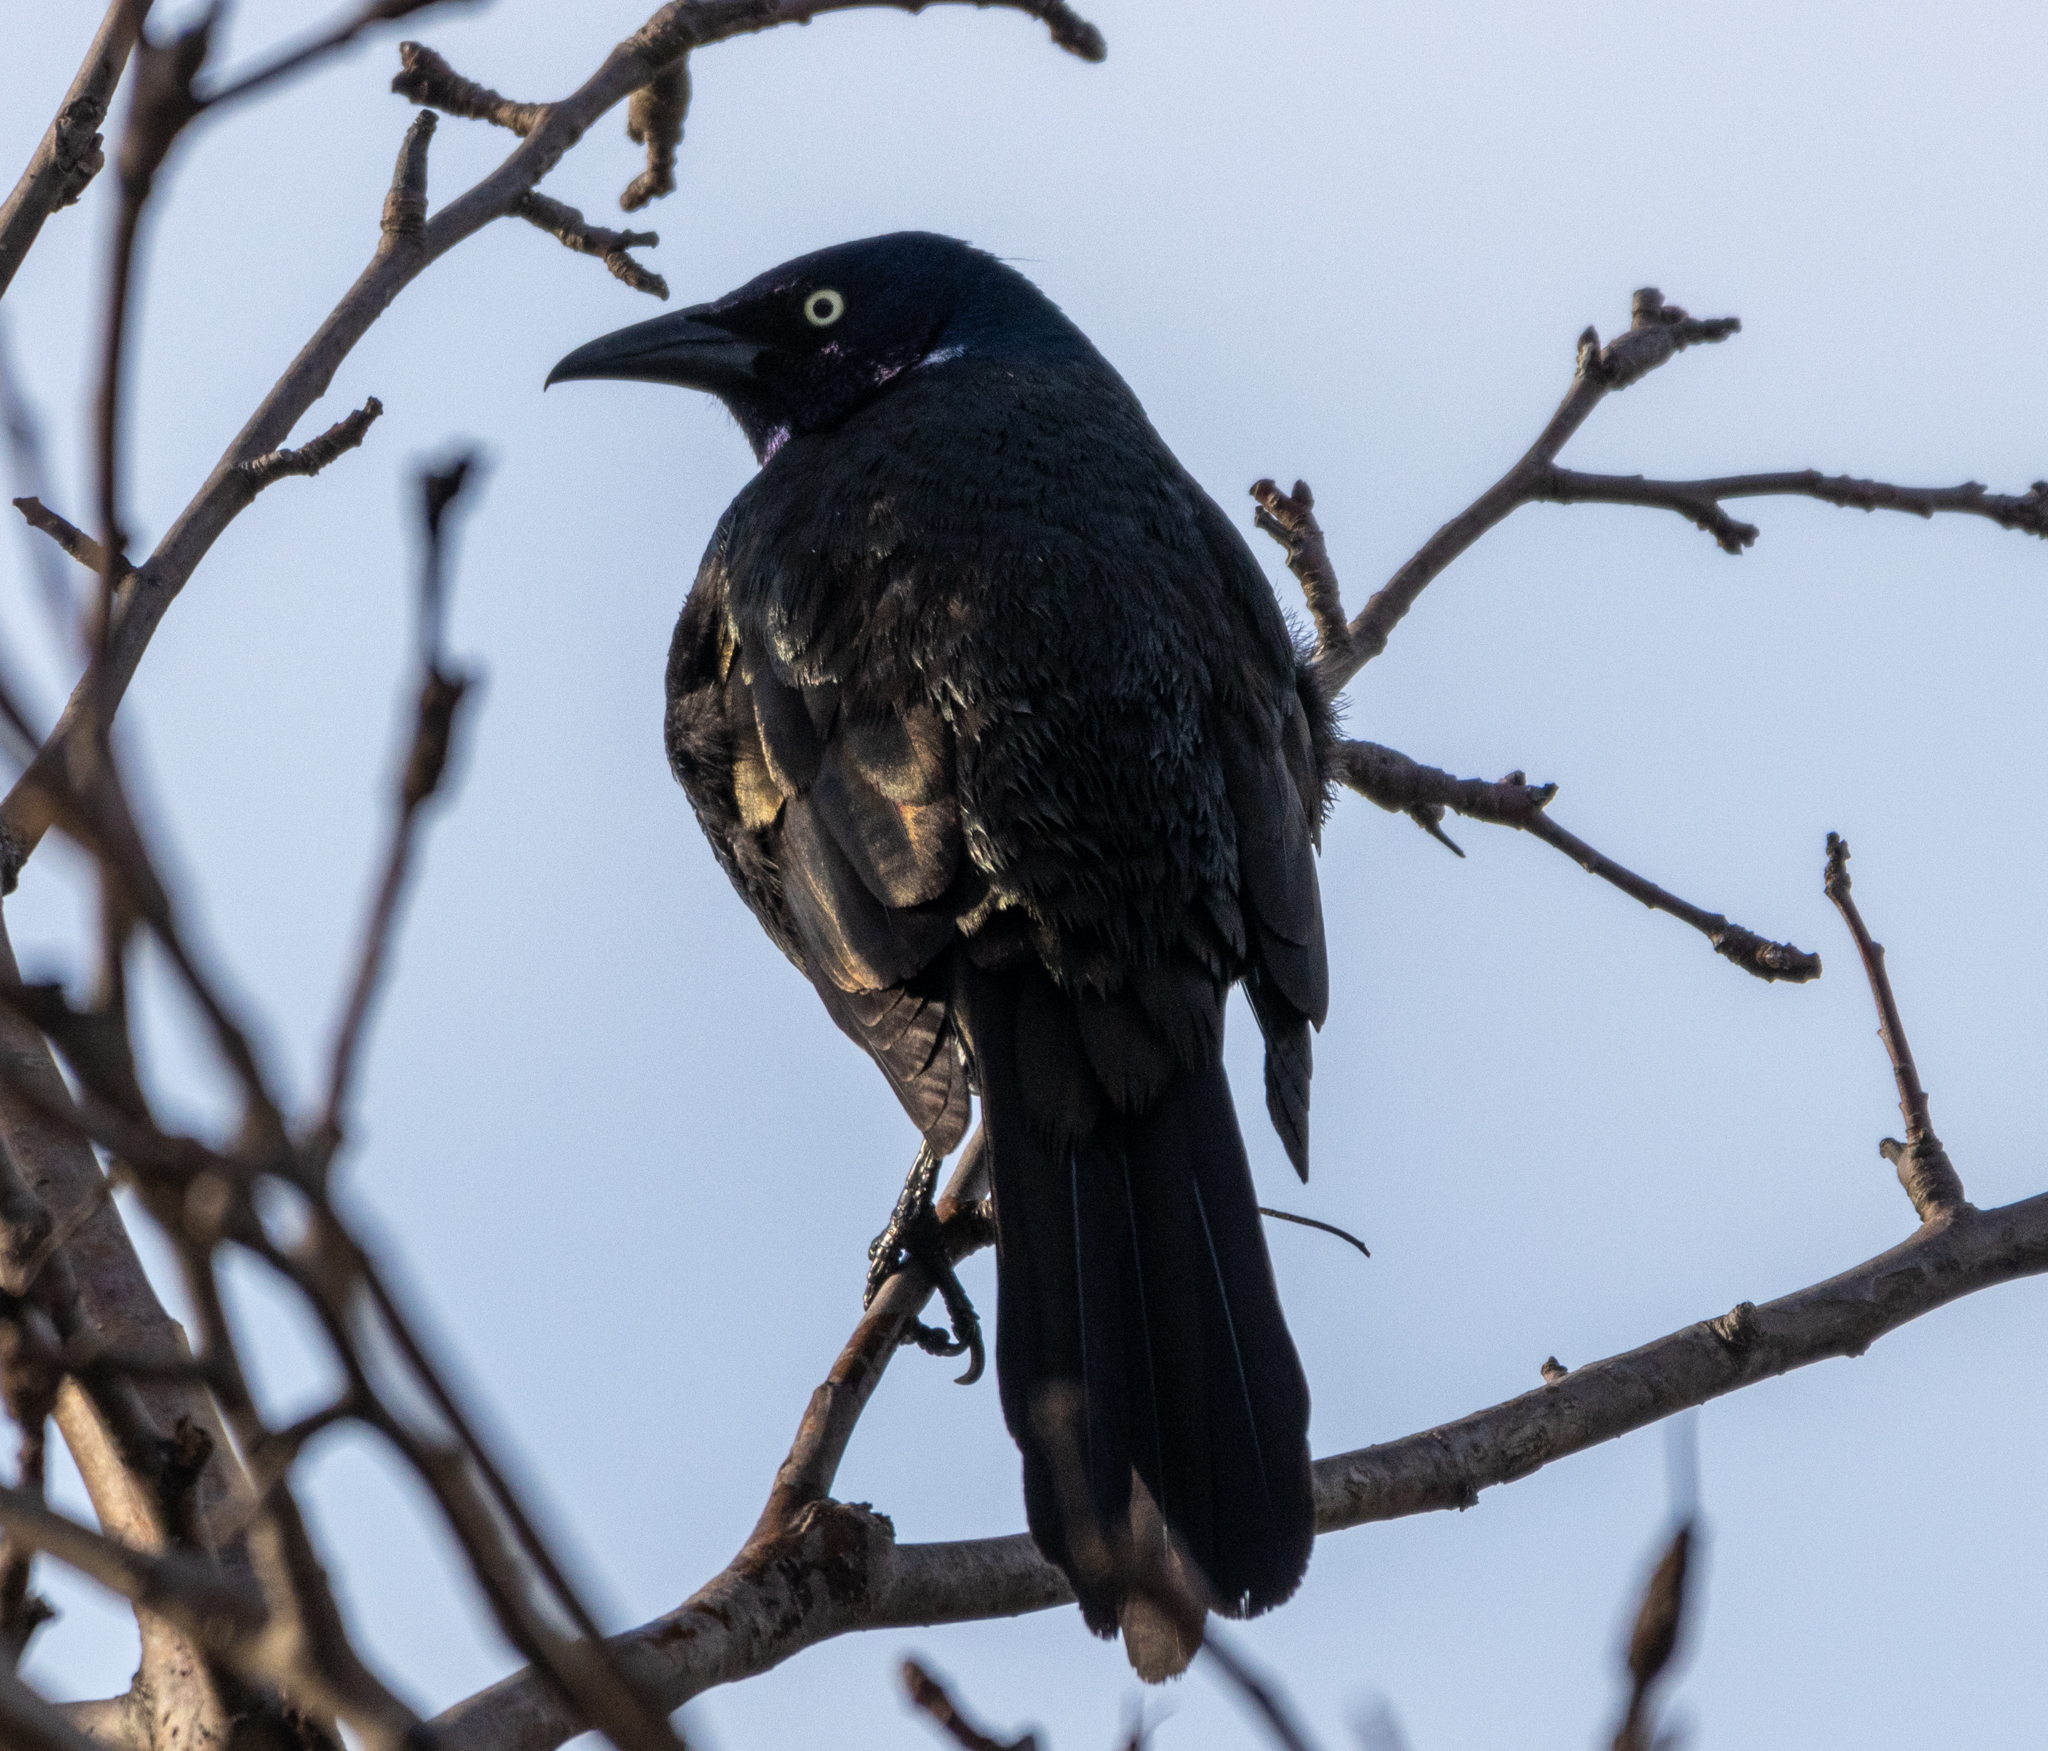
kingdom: Animalia
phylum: Chordata
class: Aves
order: Passeriformes
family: Icteridae
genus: Quiscalus
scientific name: Quiscalus quiscula
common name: Common grackle
